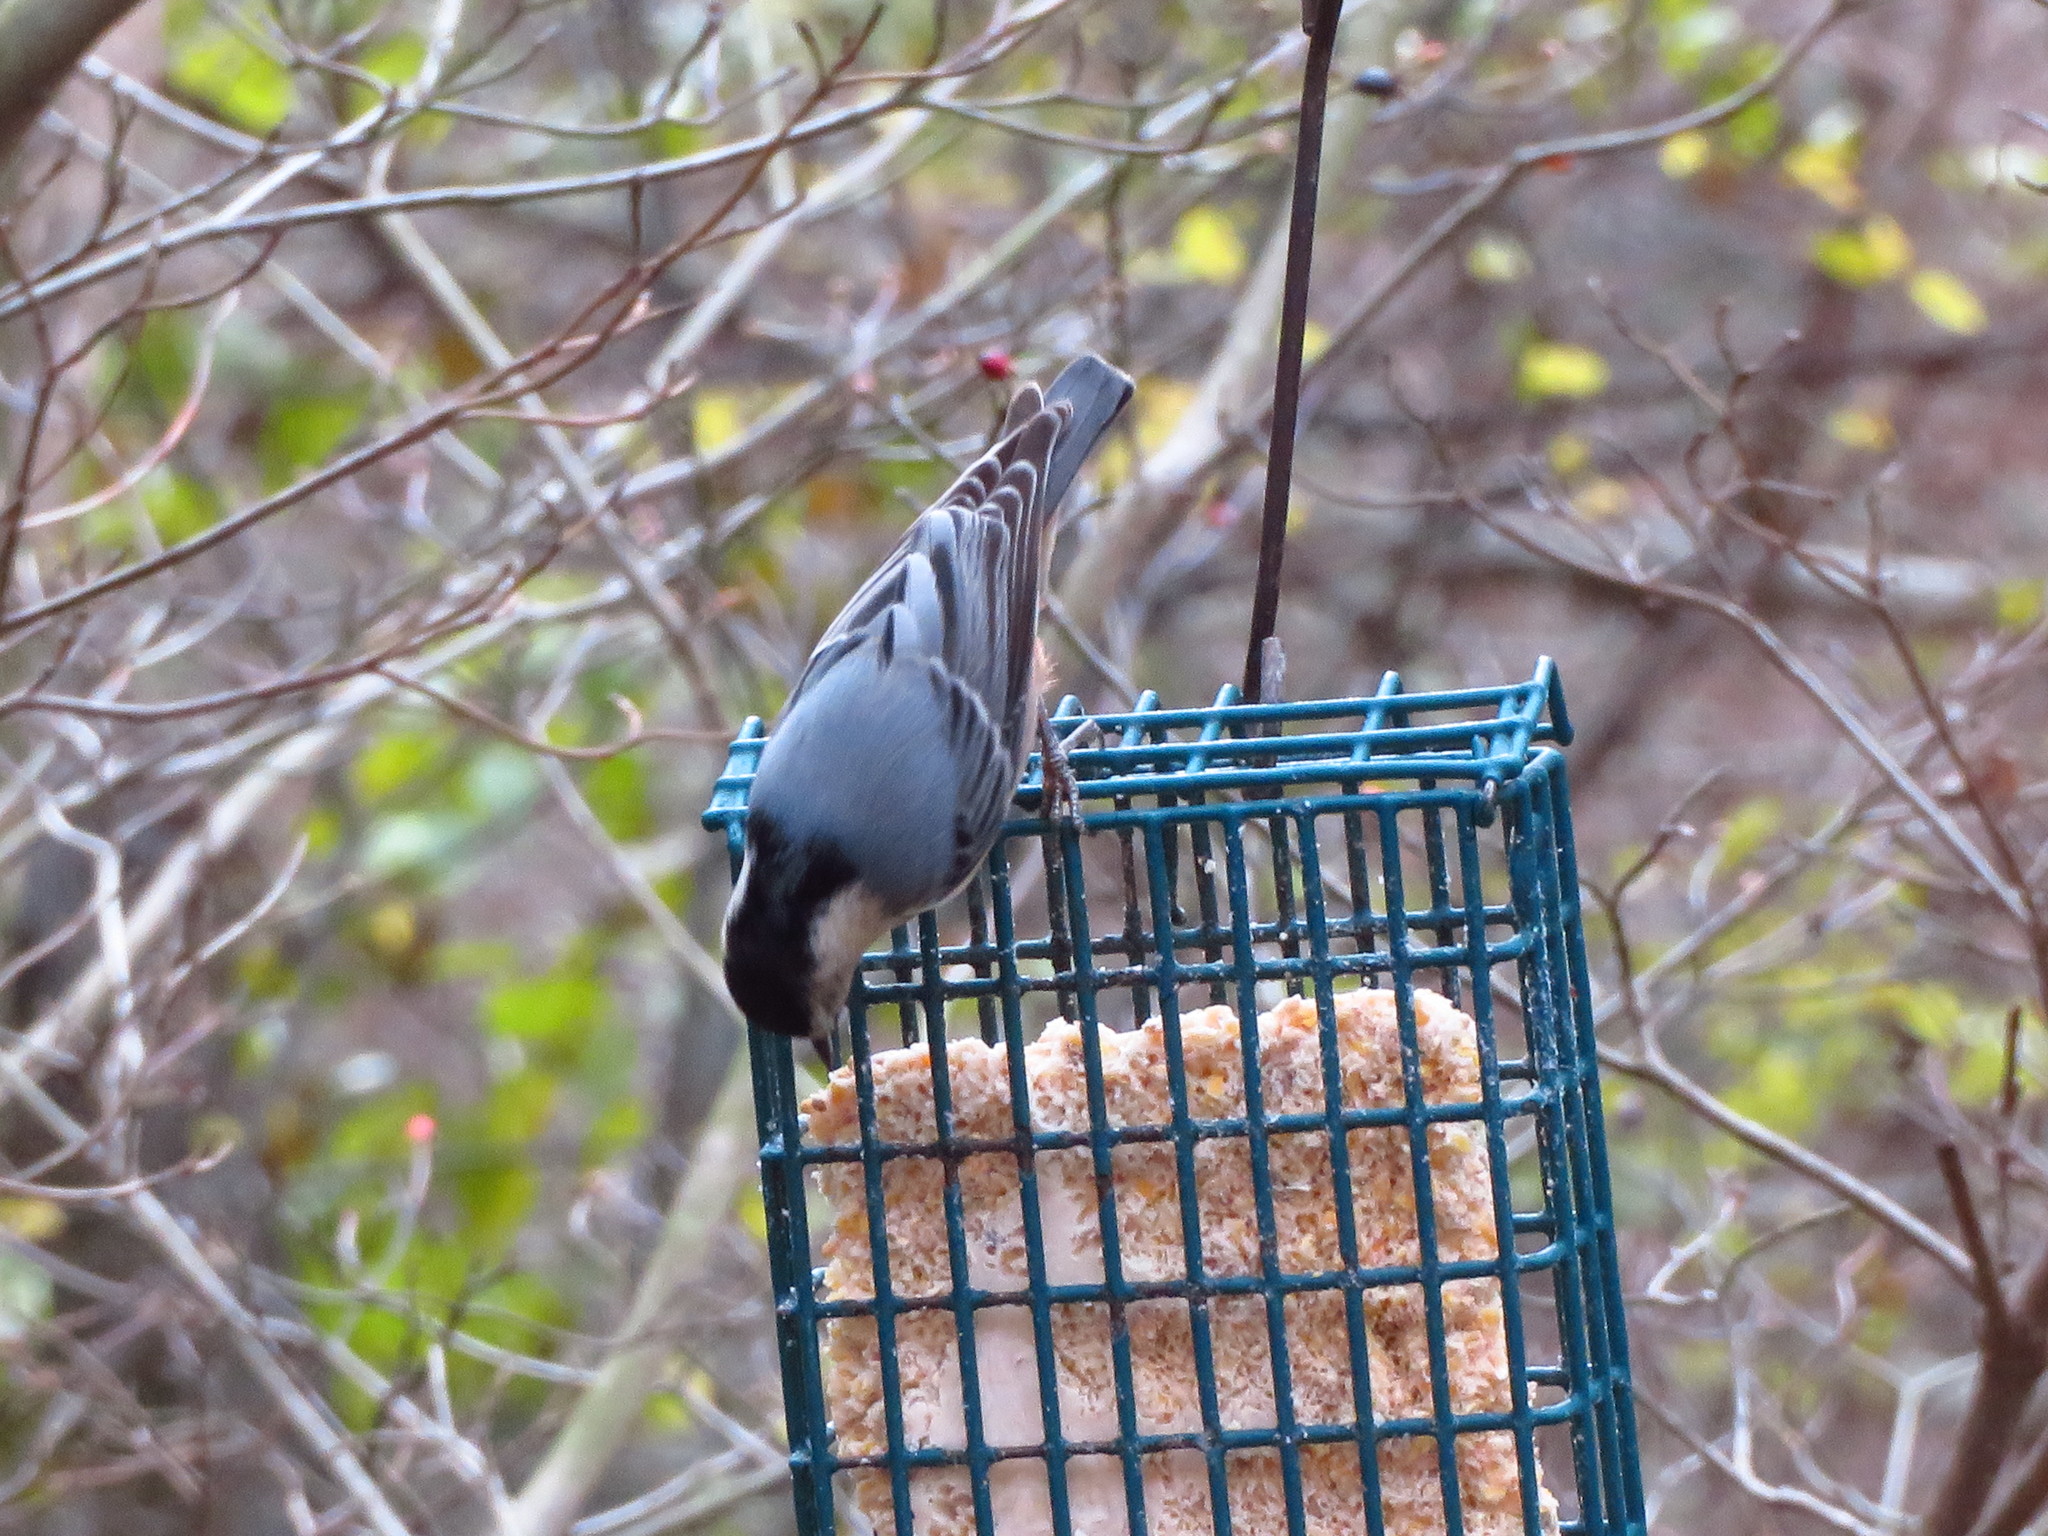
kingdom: Animalia
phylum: Chordata
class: Aves
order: Passeriformes
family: Sittidae
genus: Sitta
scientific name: Sitta carolinensis
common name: White-breasted nuthatch
